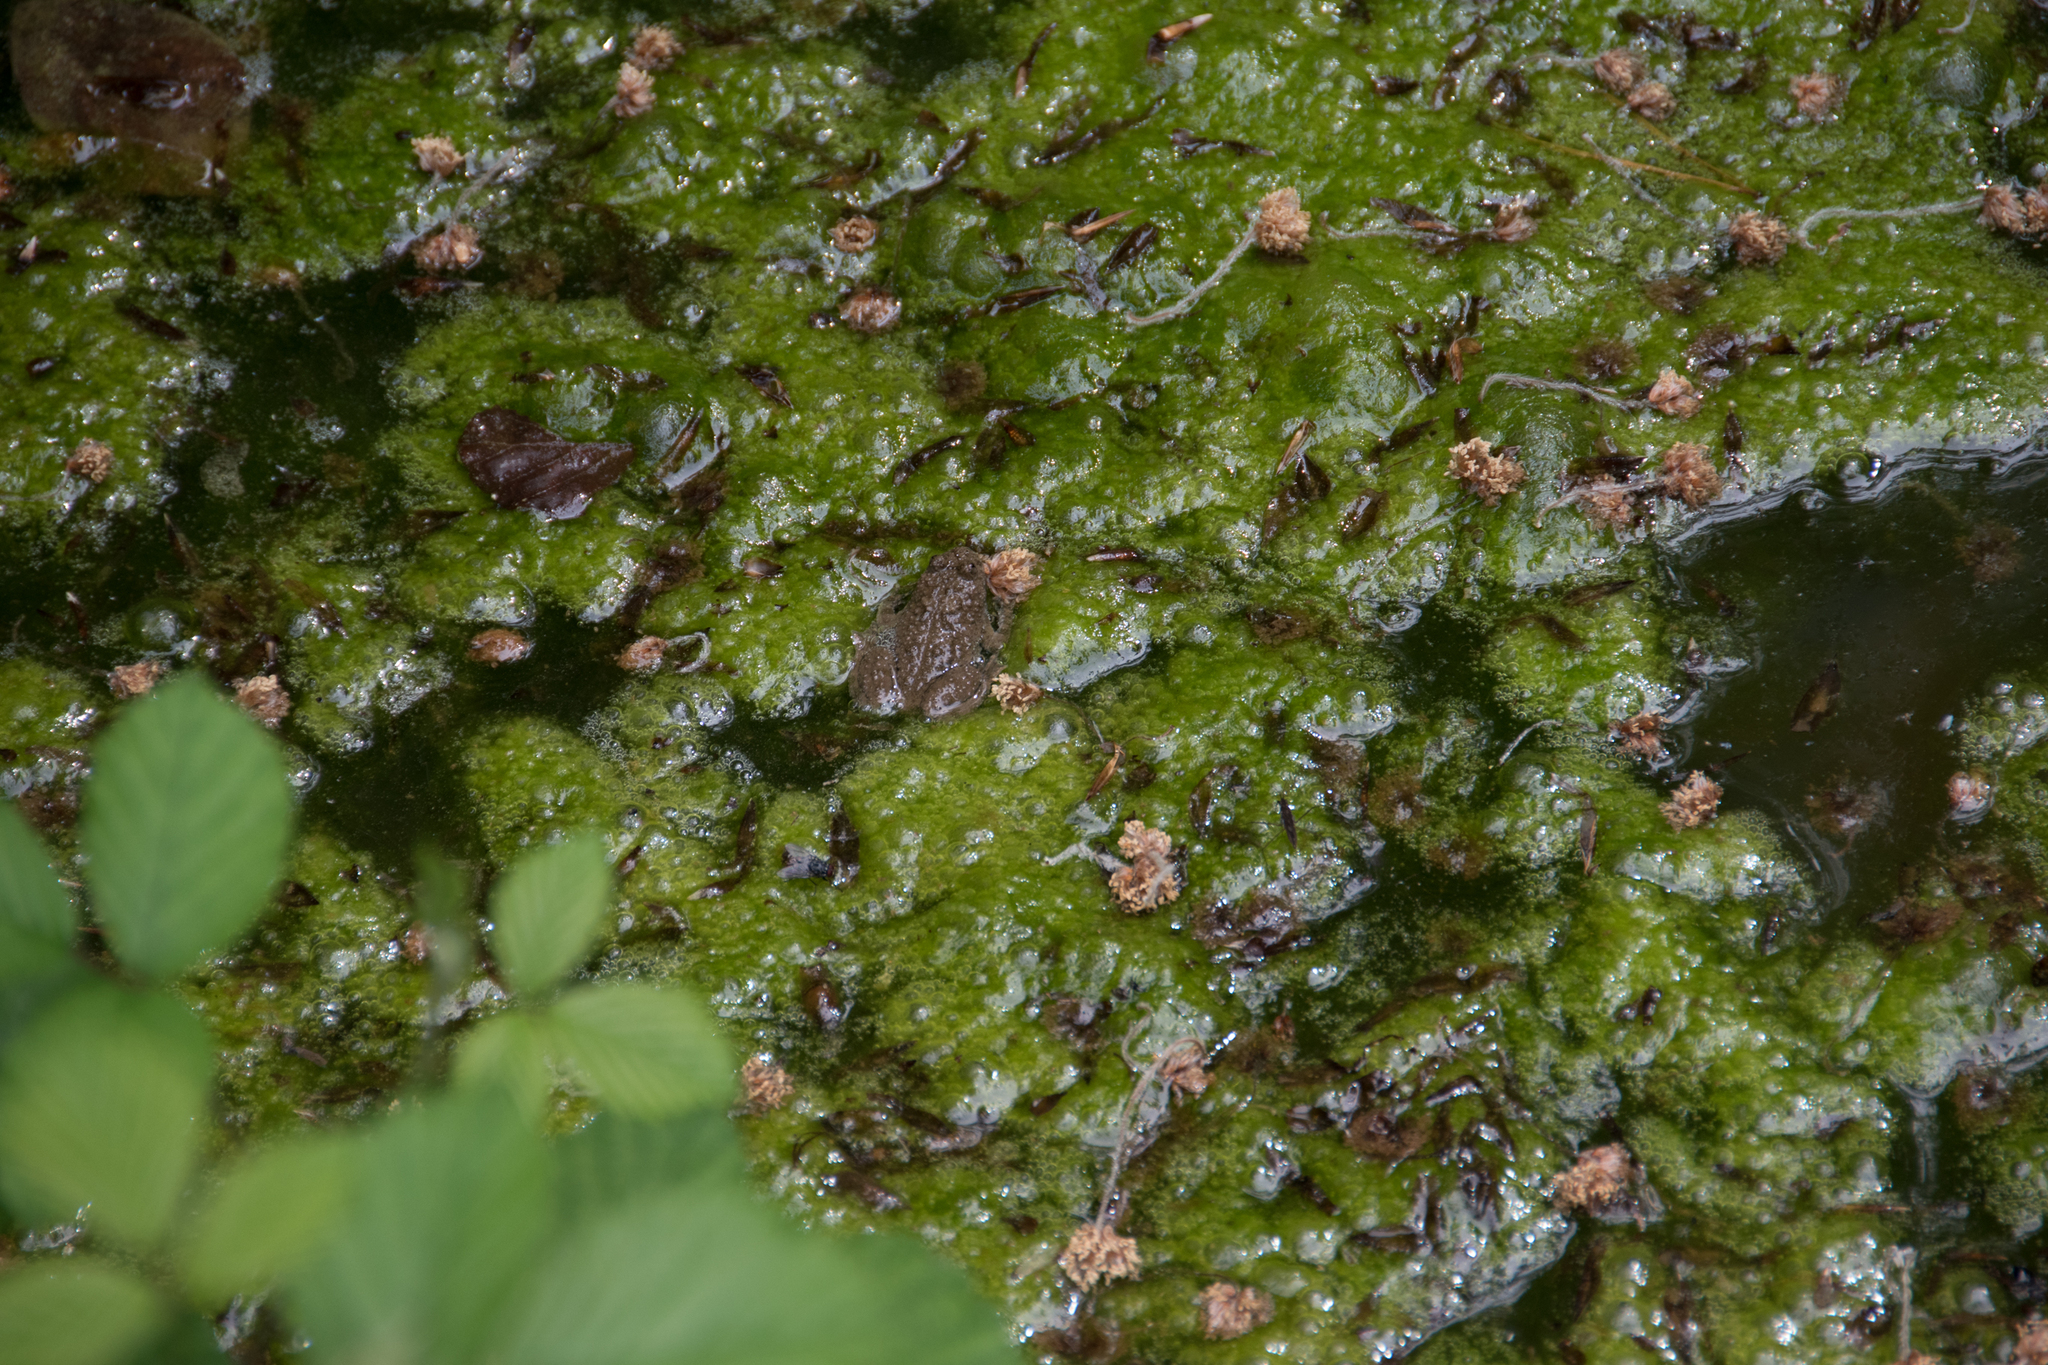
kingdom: Animalia
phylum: Chordata
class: Amphibia
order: Anura
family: Bombinatoridae
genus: Bombina
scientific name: Bombina variegata
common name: Yellow-bellied toad
